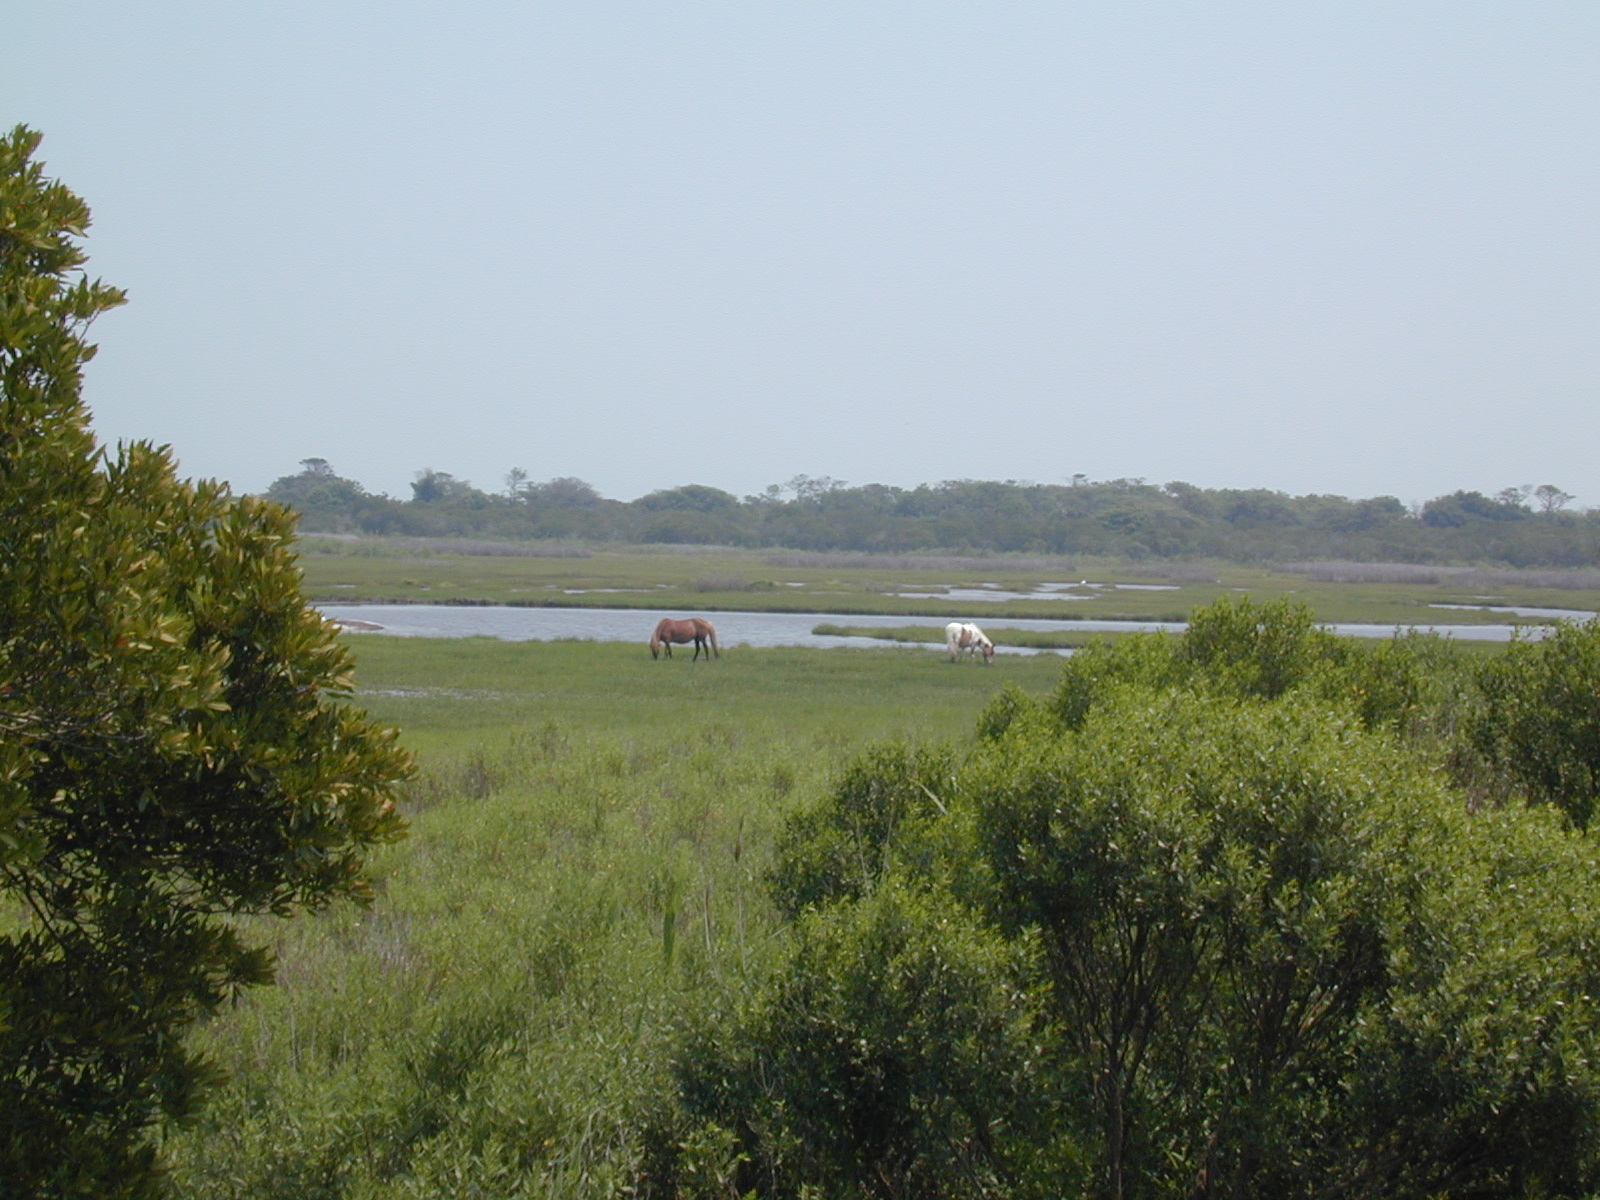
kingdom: Animalia
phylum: Chordata
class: Mammalia
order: Perissodactyla
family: Equidae
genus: Equus
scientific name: Equus caballus
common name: Horse
